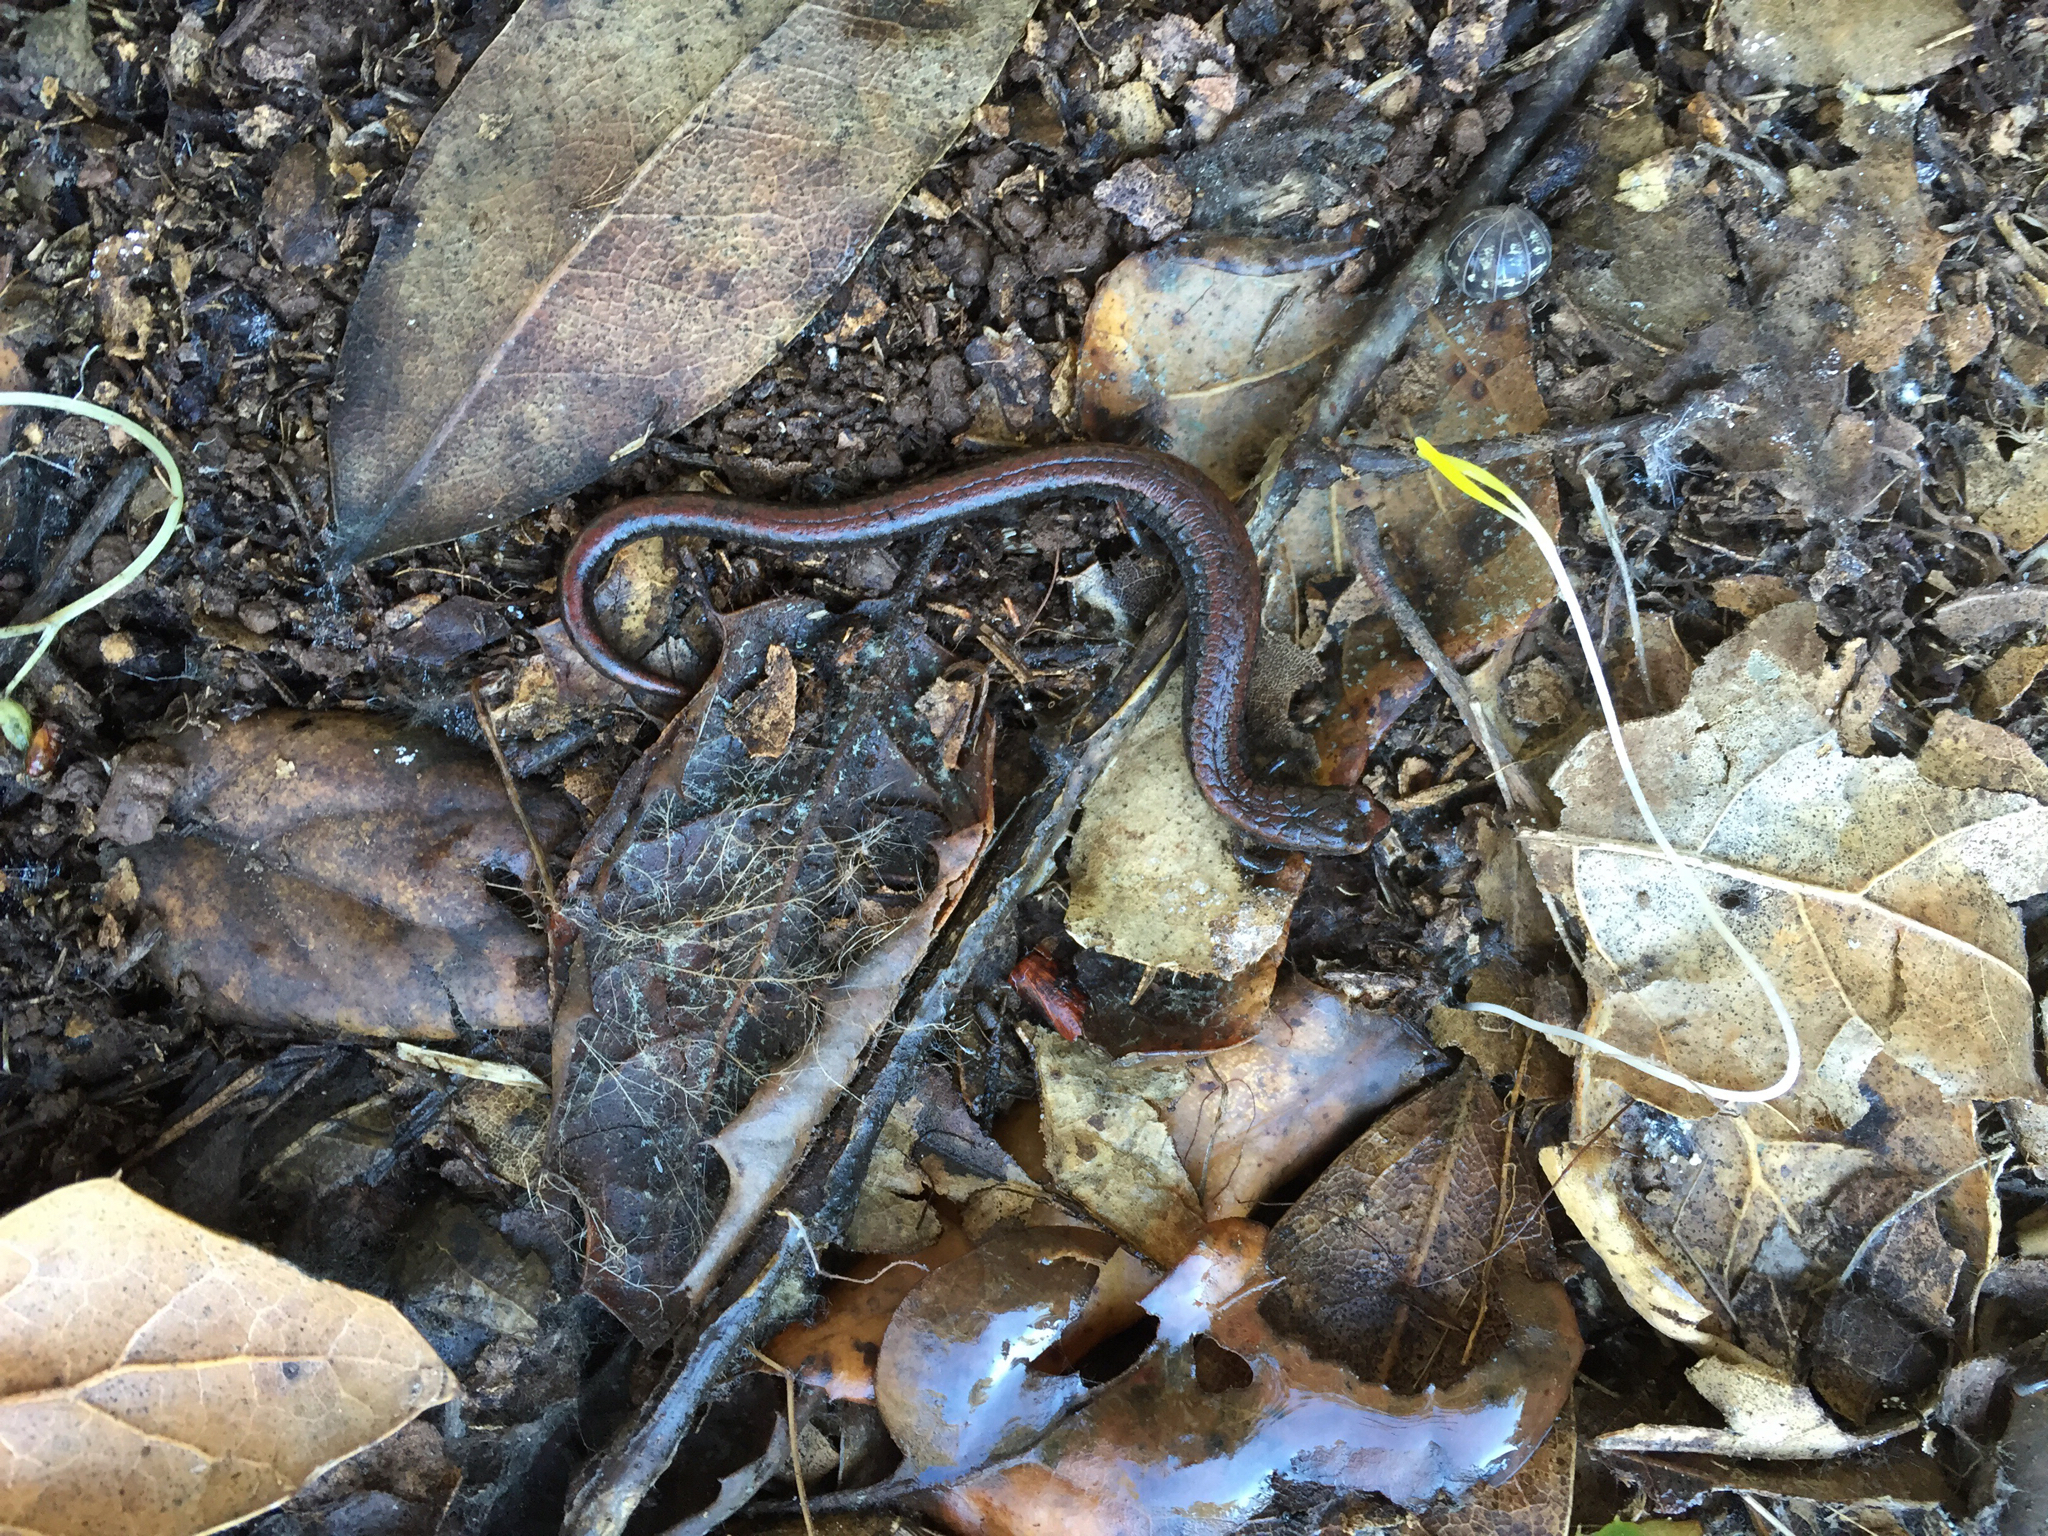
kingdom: Animalia
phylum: Chordata
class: Amphibia
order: Caudata
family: Plethodontidae
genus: Batrachoseps
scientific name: Batrachoseps attenuatus
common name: California slender salamander
